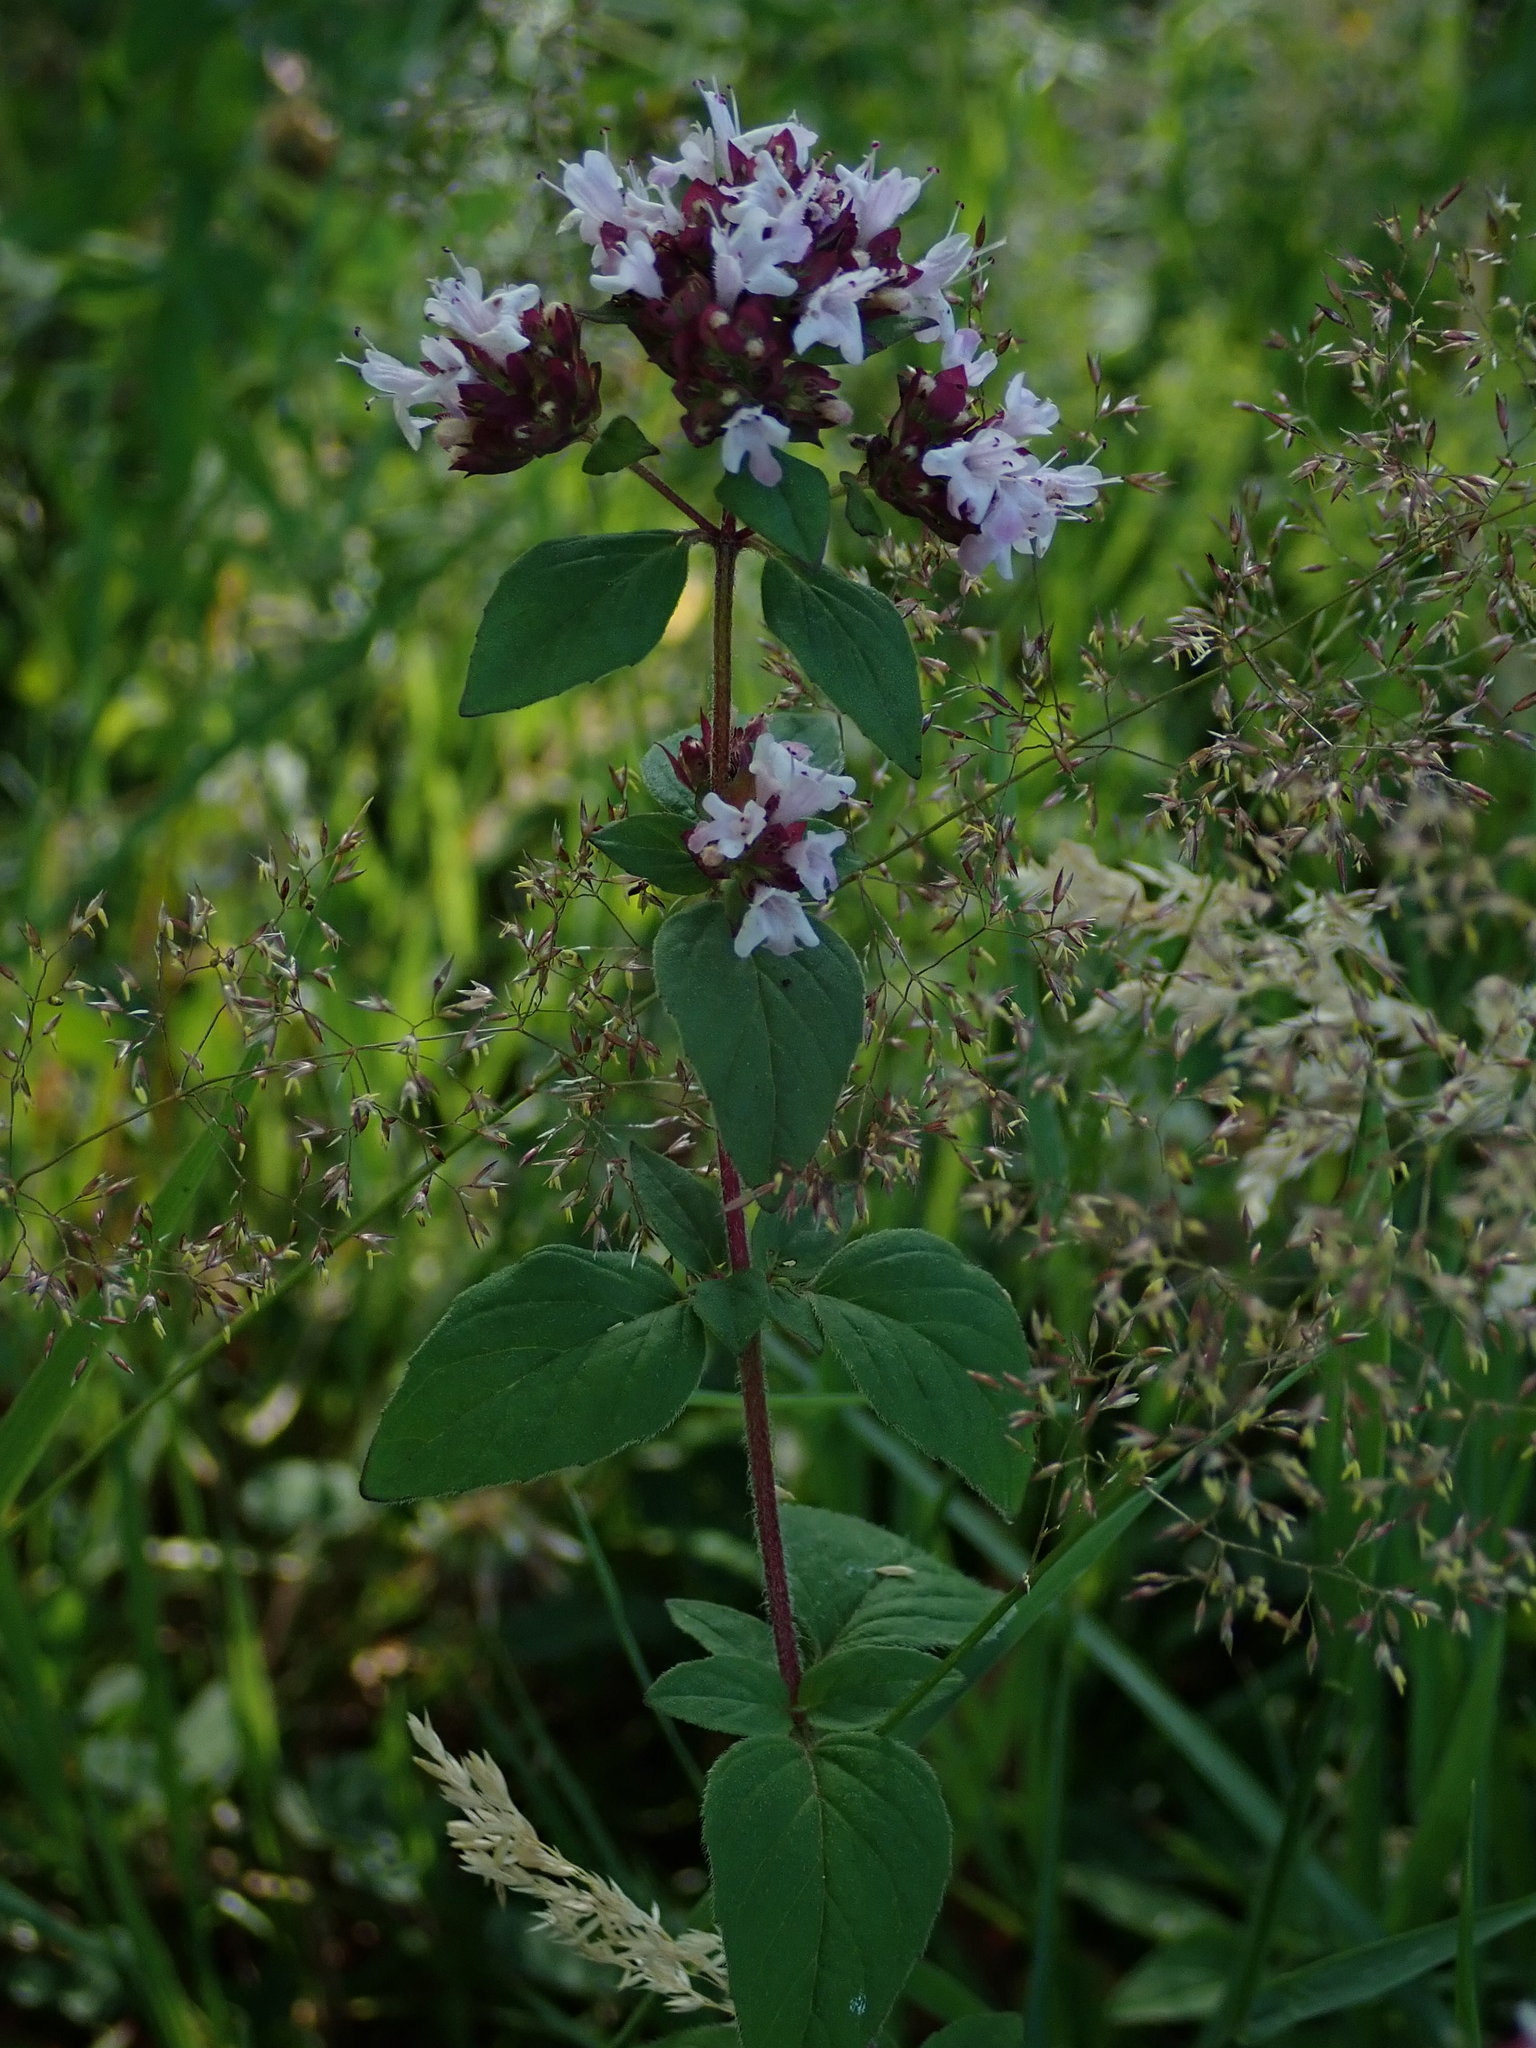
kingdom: Plantae
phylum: Tracheophyta
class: Magnoliopsida
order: Lamiales
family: Lamiaceae
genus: Origanum
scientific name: Origanum vulgare
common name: Wild marjoram
